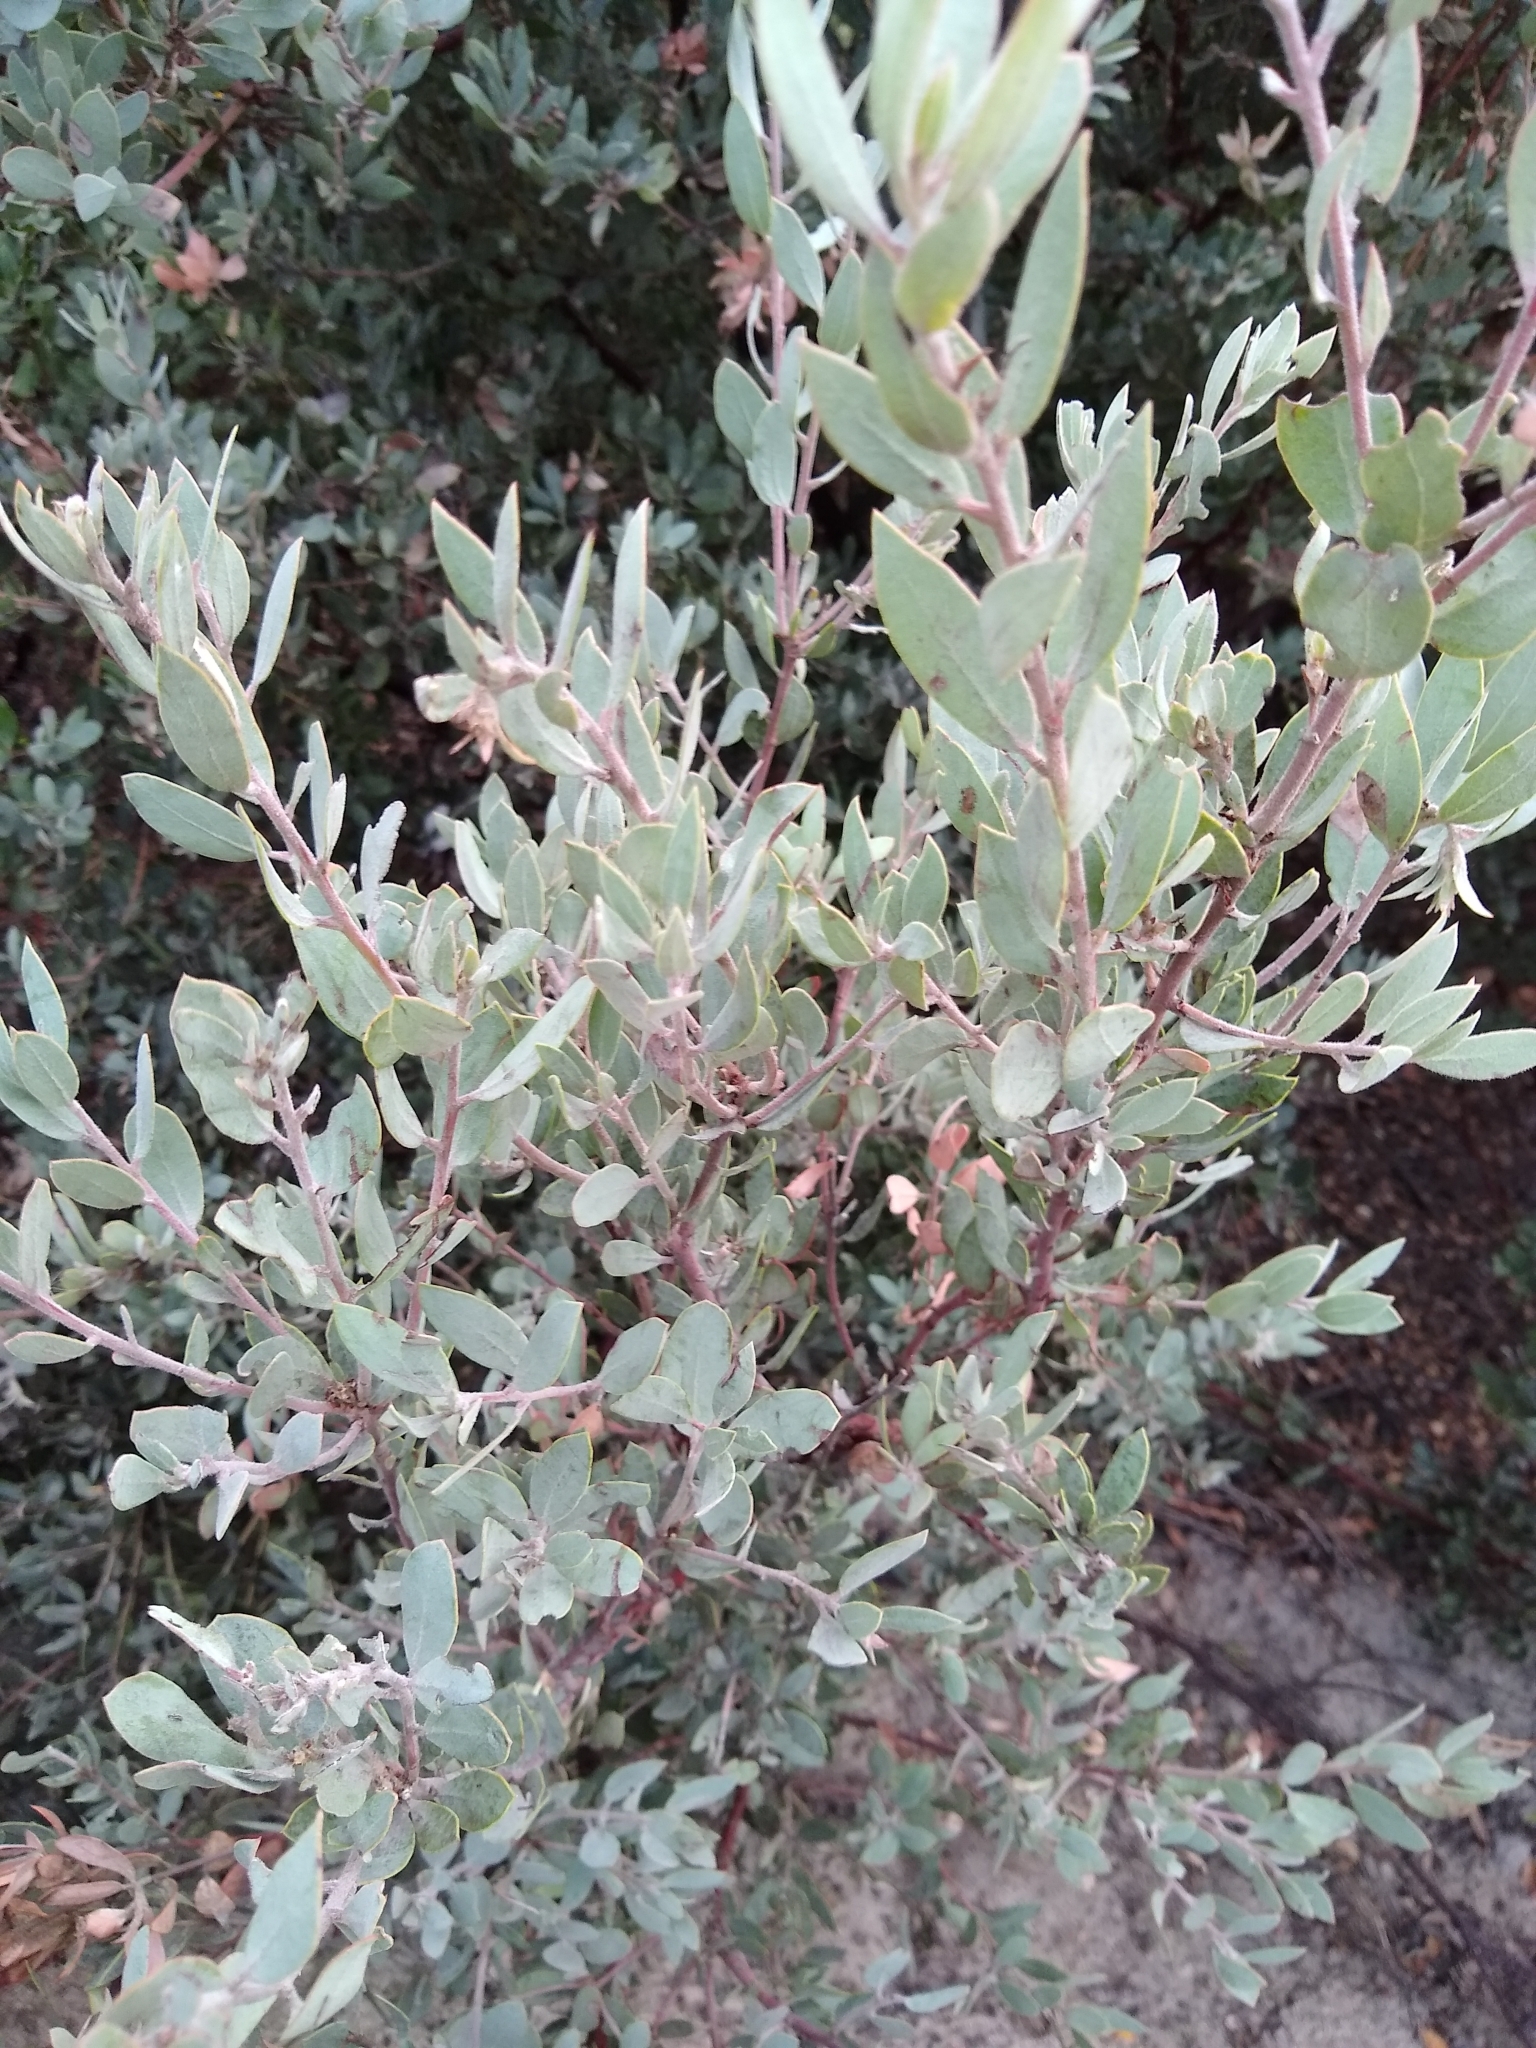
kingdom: Plantae
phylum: Tracheophyta
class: Magnoliopsida
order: Ericales
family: Ericaceae
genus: Arctostaphylos
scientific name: Arctostaphylos silvicola
